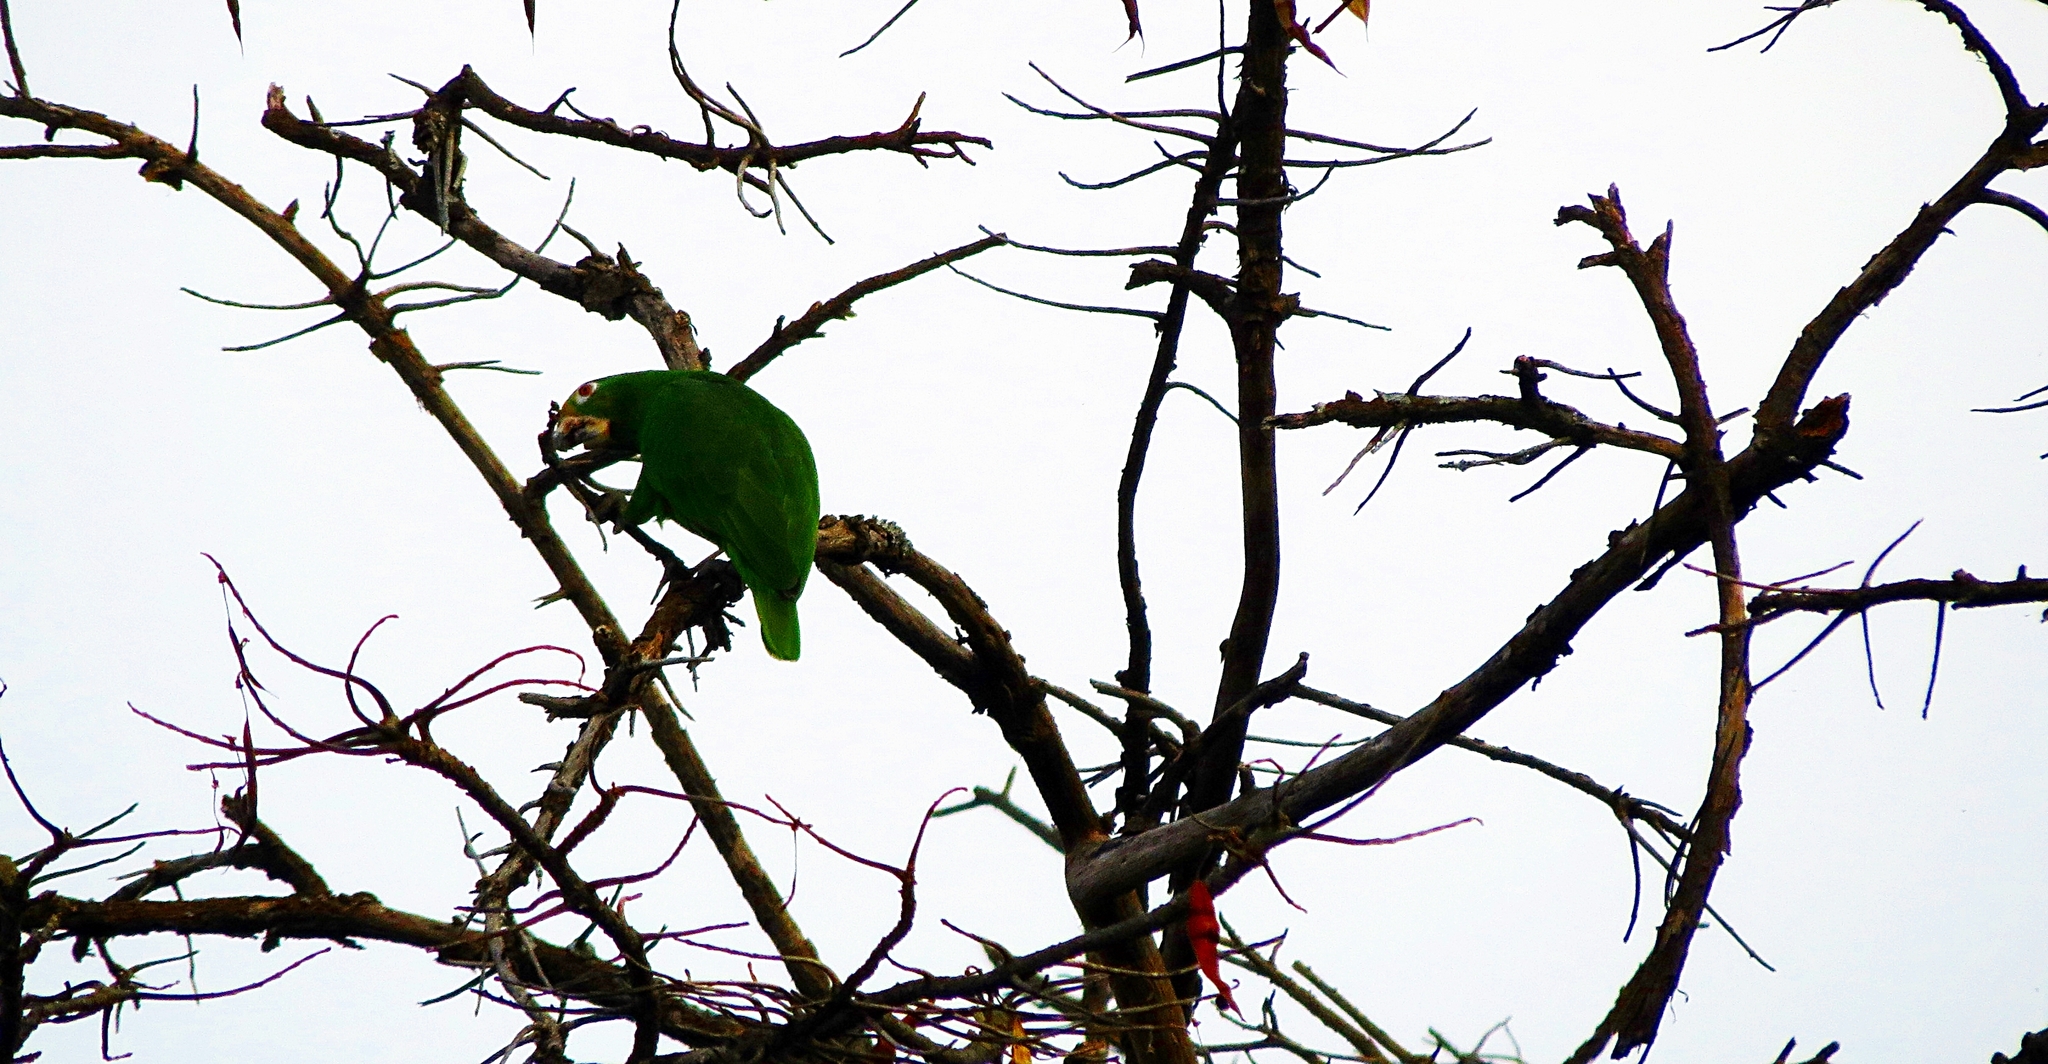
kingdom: Animalia
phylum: Chordata
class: Aves
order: Psittaciformes
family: Psittacidae
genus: Amazona
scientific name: Amazona ochrocephala
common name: Yellow-crowned amazon
